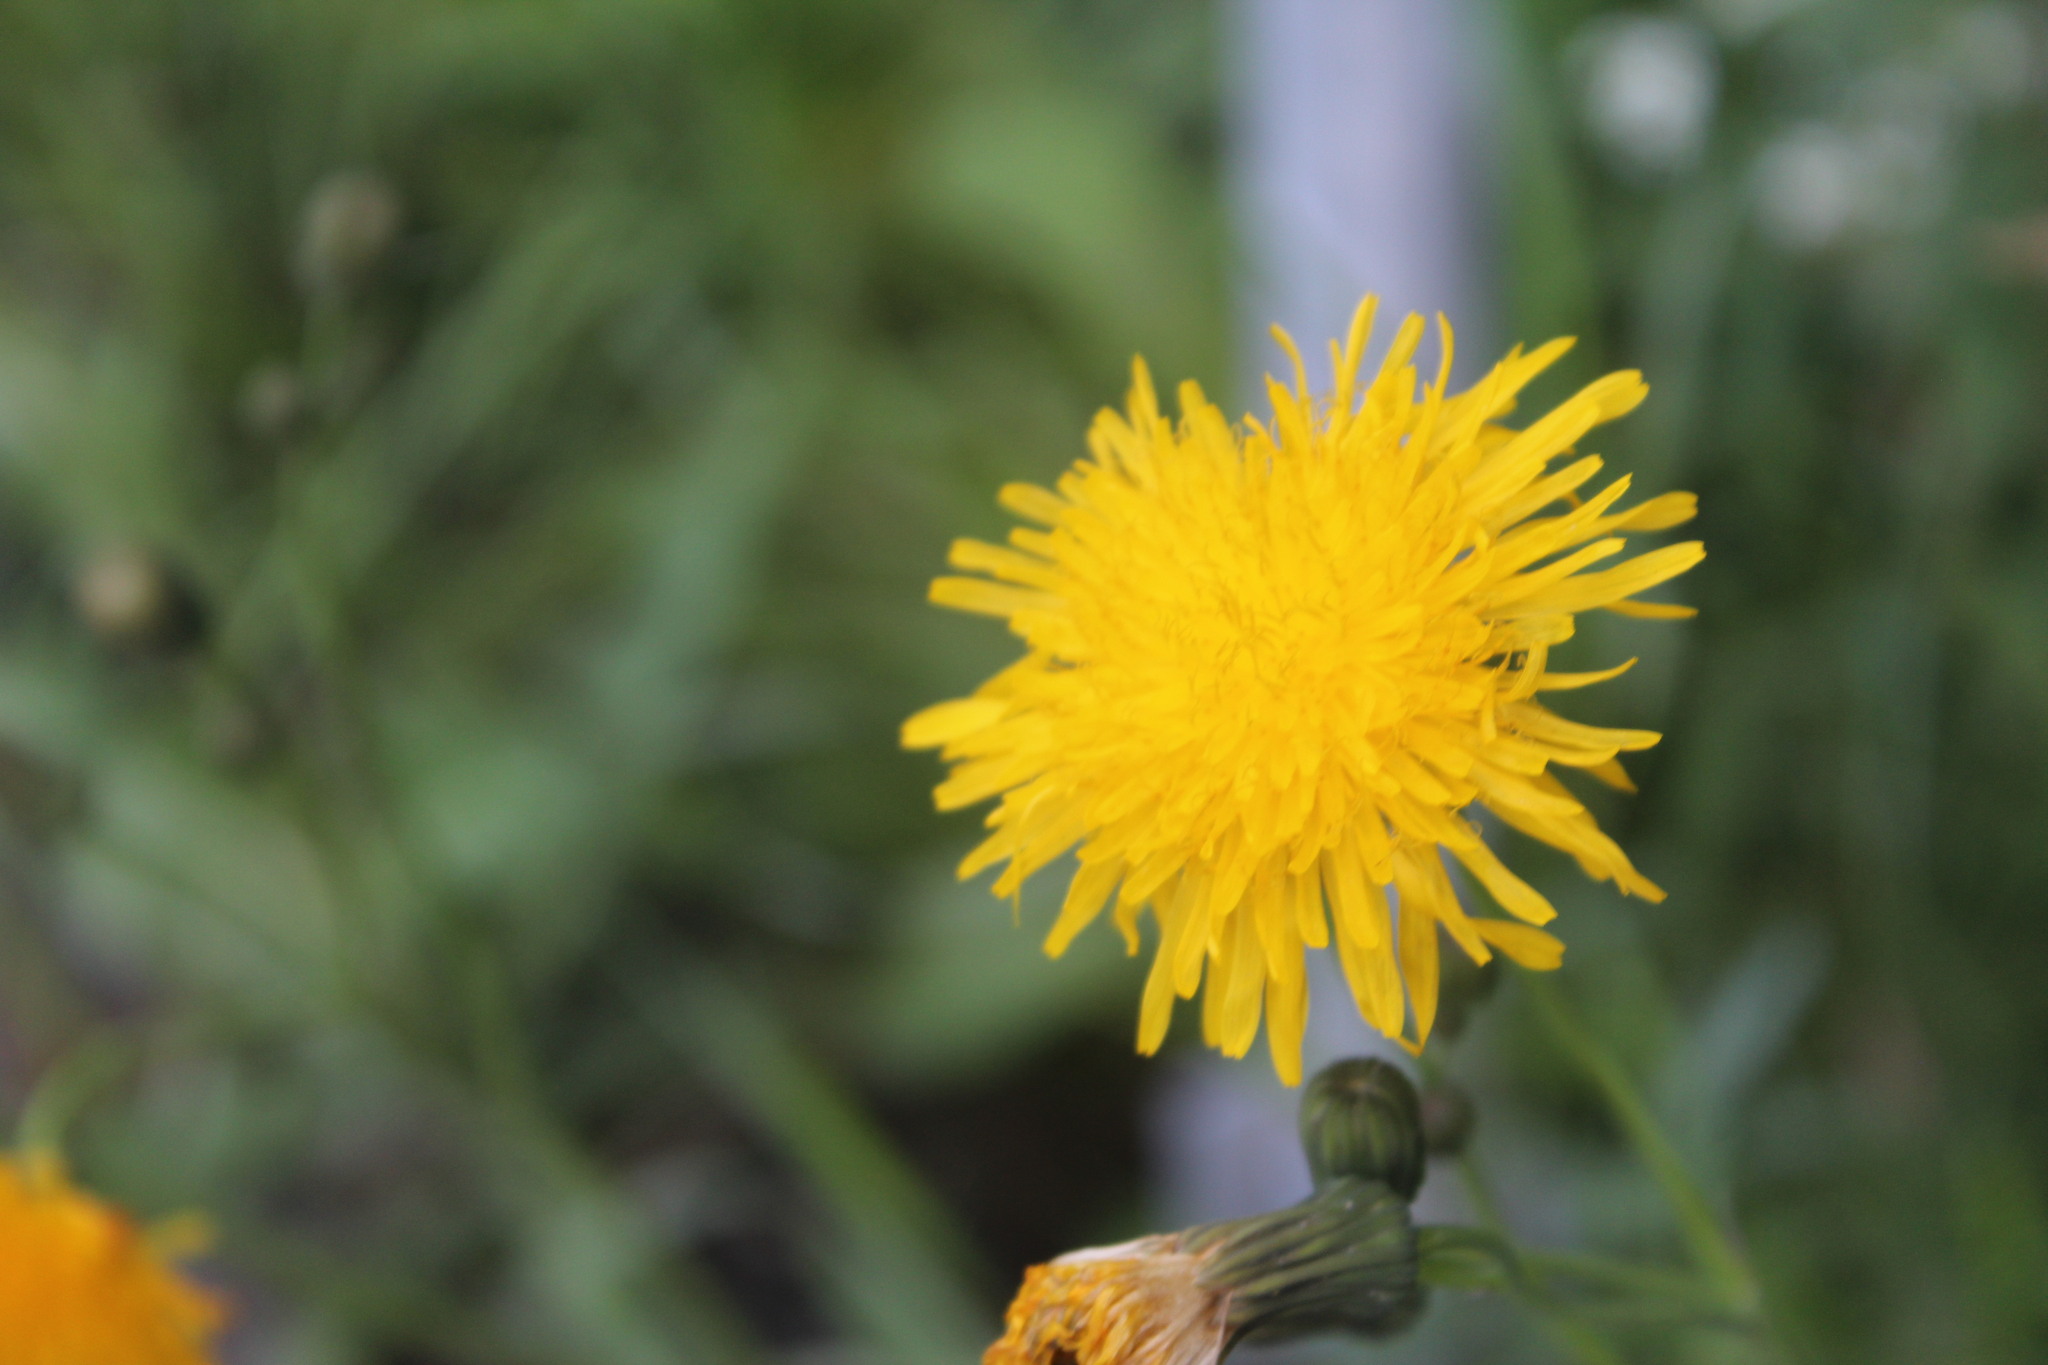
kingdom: Plantae
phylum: Tracheophyta
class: Magnoliopsida
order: Asterales
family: Asteraceae
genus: Sonchus
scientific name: Sonchus arvensis
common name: Perennial sow-thistle
